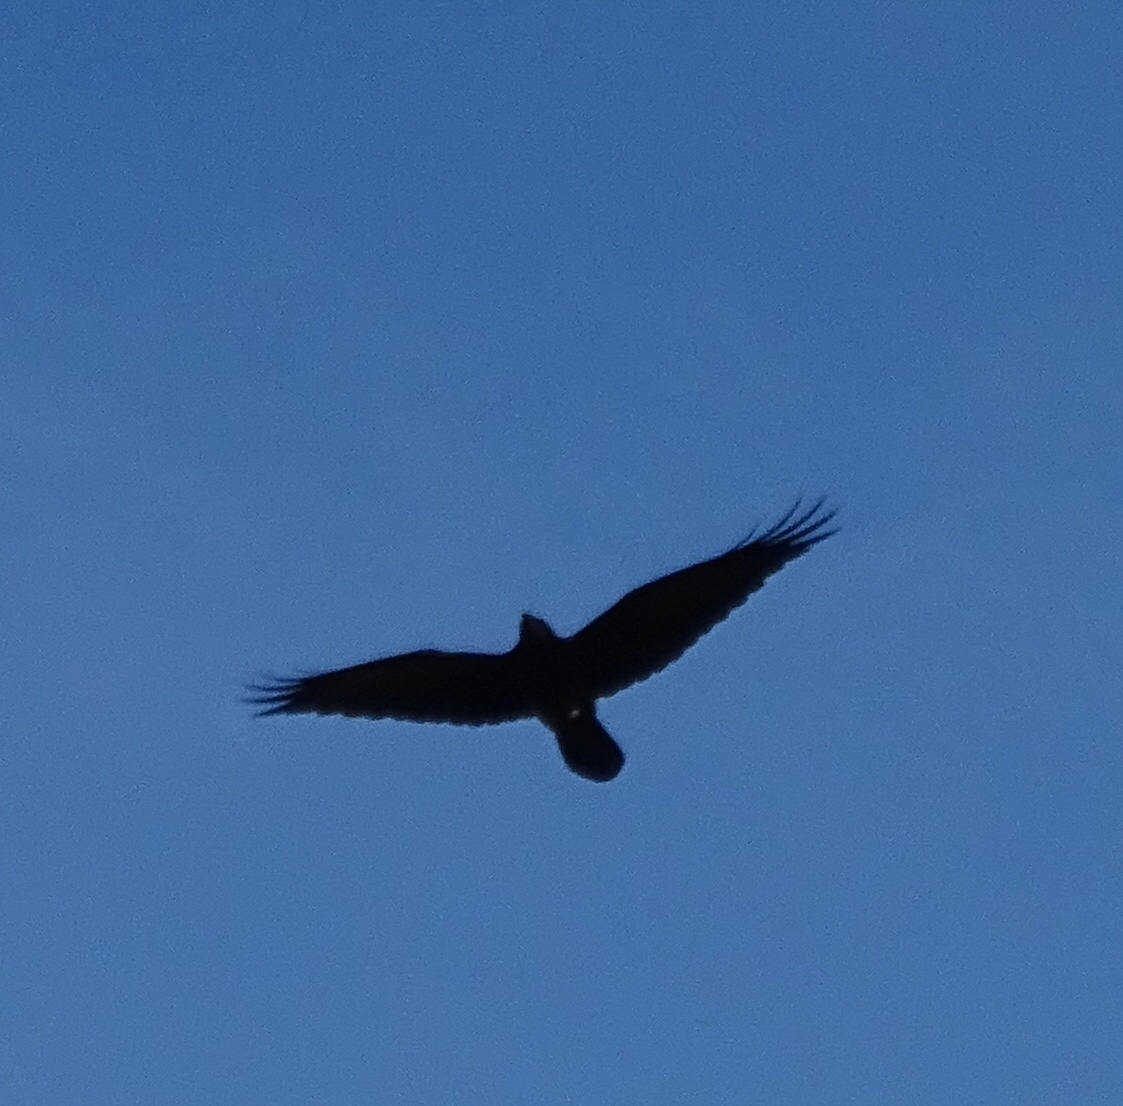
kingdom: Animalia
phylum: Chordata
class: Aves
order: Passeriformes
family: Corvidae
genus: Corvus
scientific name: Corvus corax
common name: Common raven
